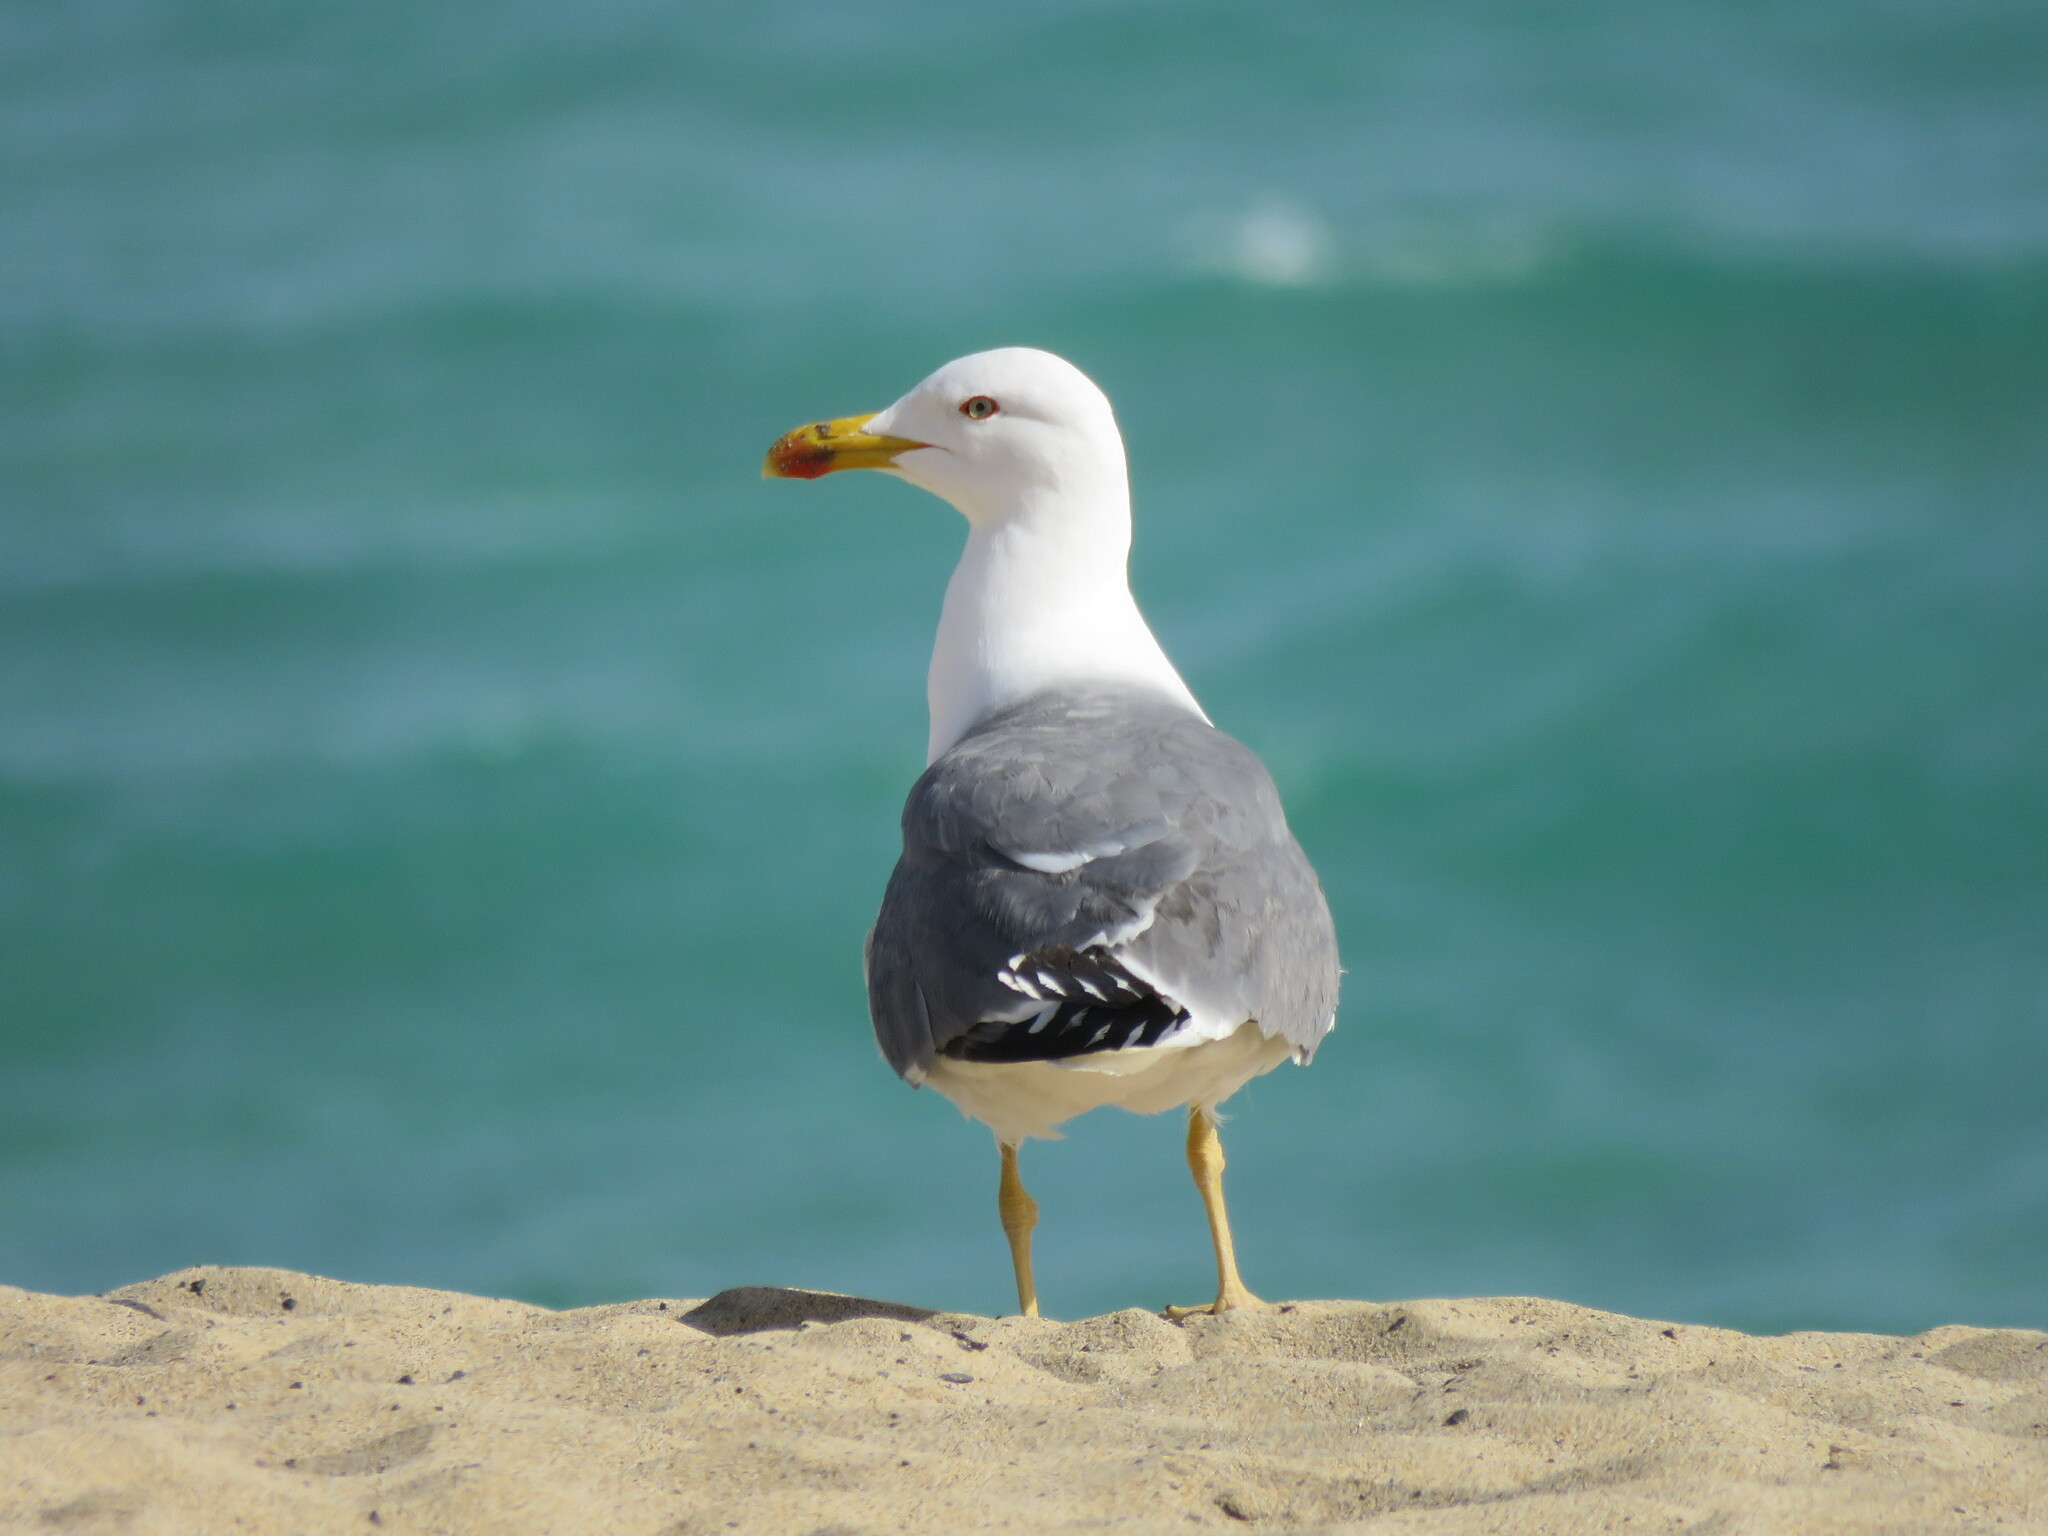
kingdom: Animalia
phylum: Chordata
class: Aves
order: Charadriiformes
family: Laridae
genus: Larus
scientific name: Larus michahellis
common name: Yellow-legged gull
